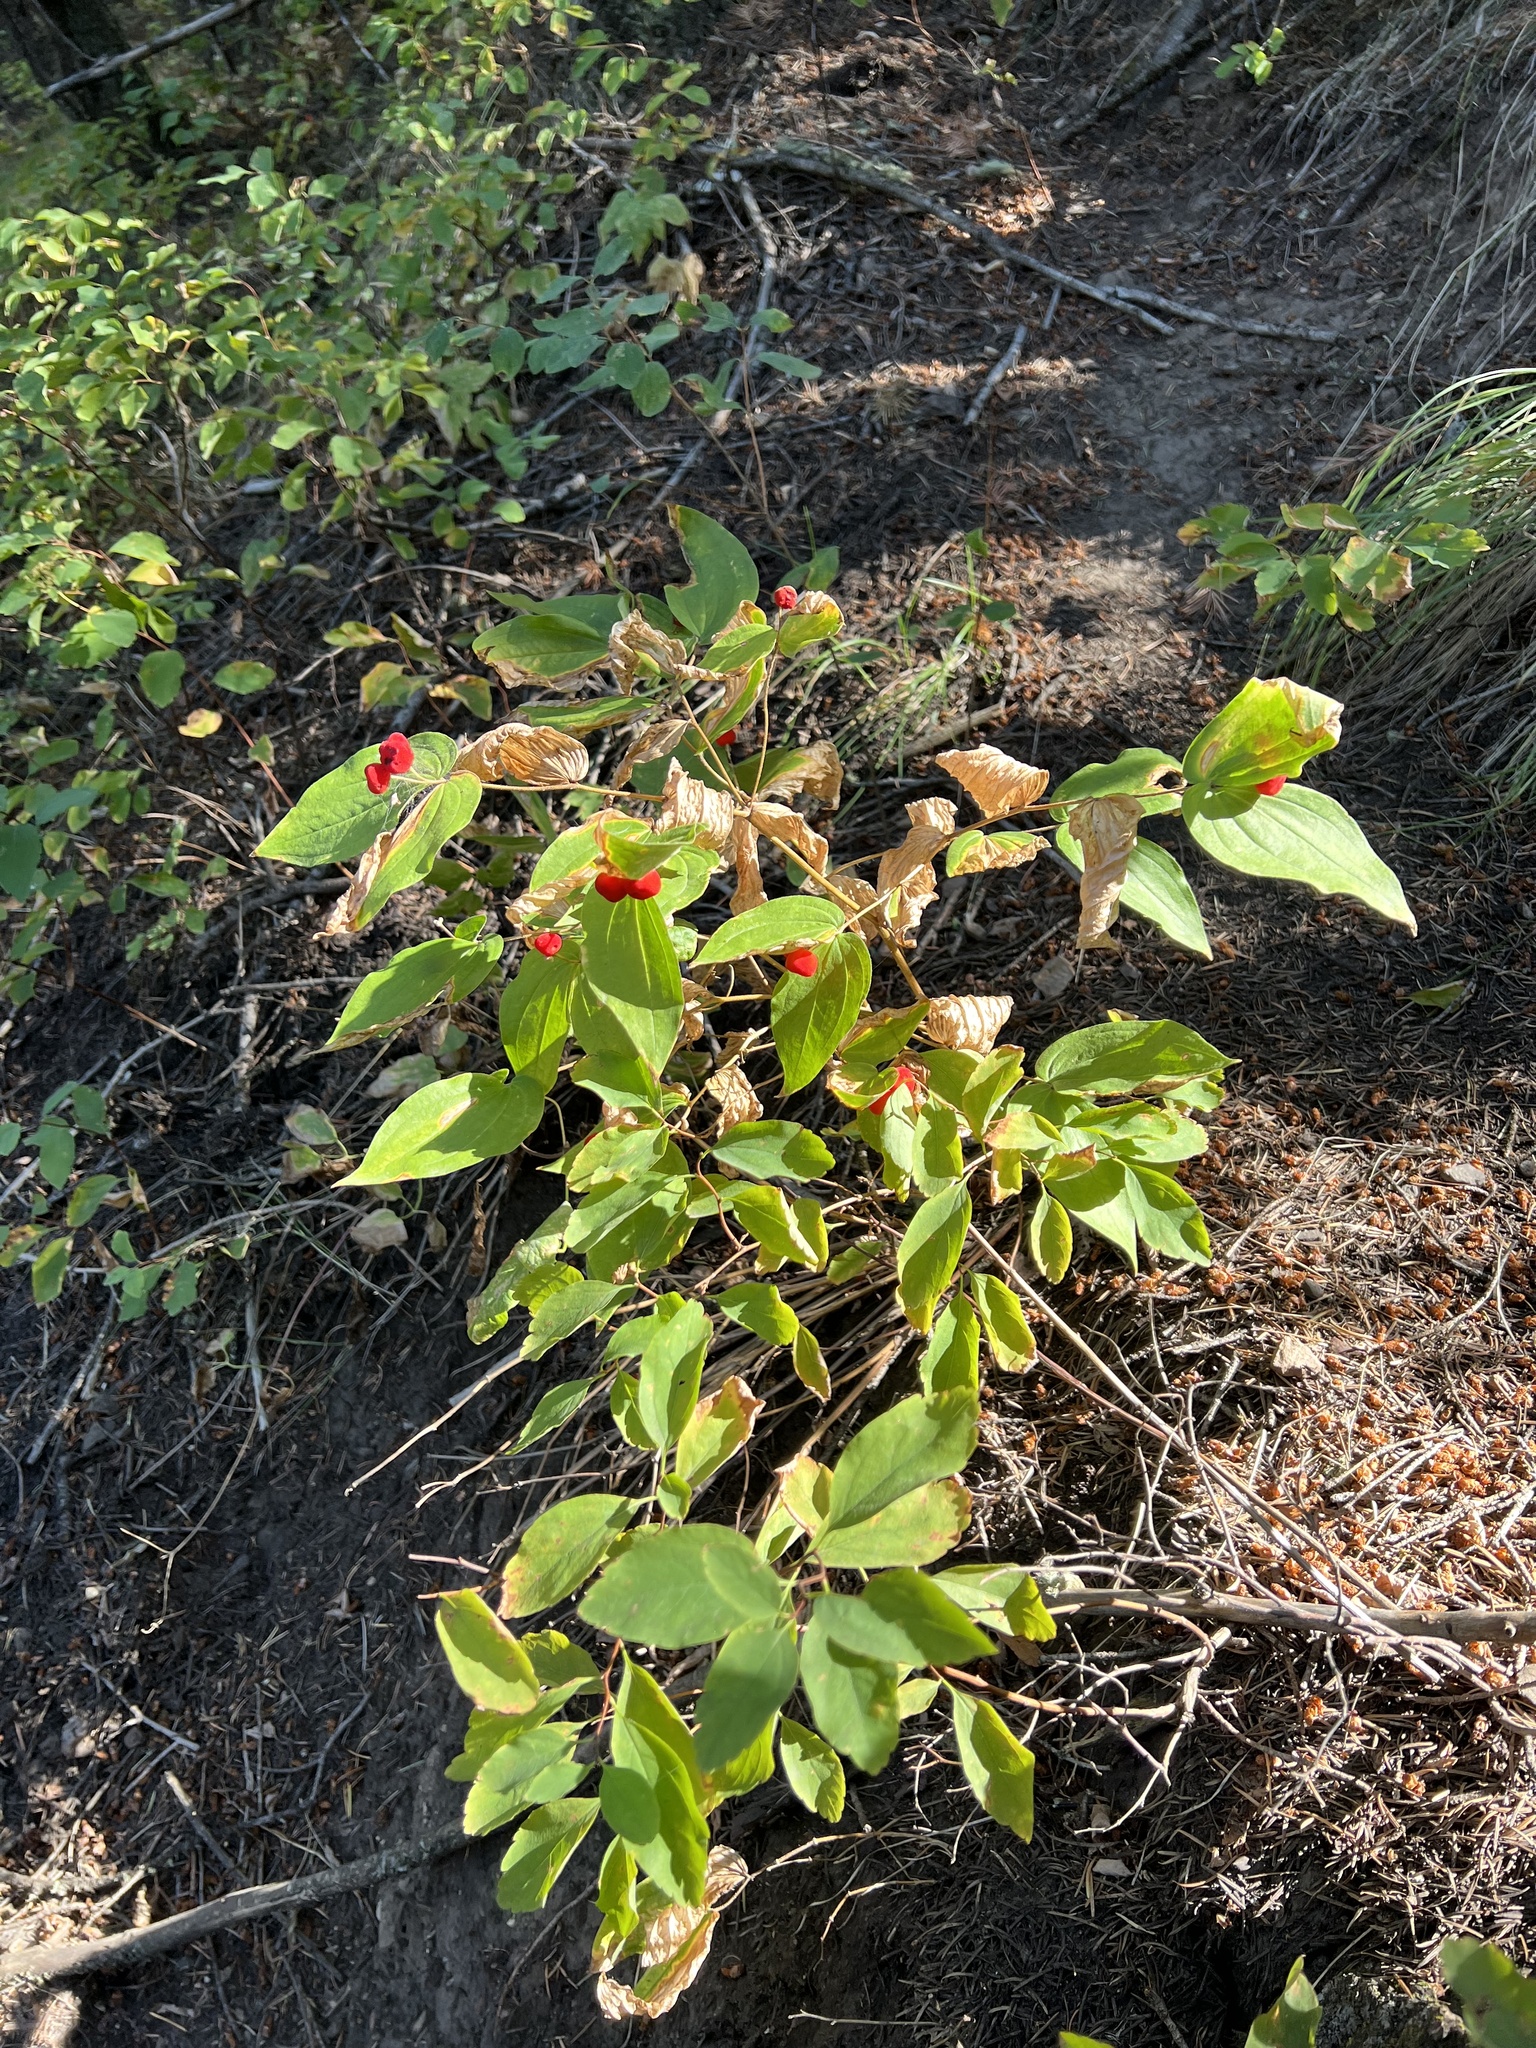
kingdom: Plantae
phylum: Tracheophyta
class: Liliopsida
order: Liliales
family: Liliaceae
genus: Prosartes
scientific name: Prosartes trachycarpa
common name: Rough-fruit fairy-bells
